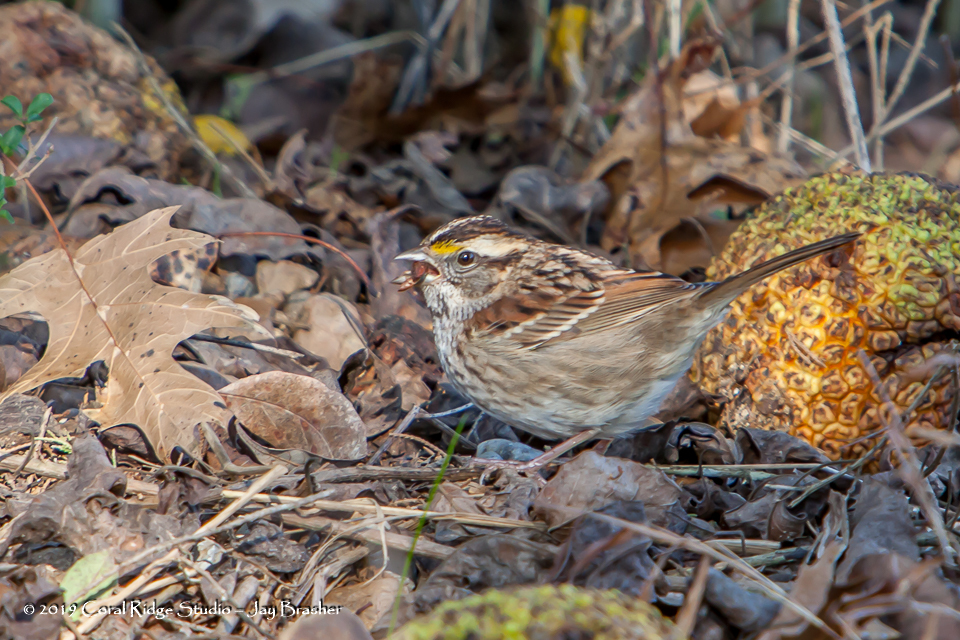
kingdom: Animalia
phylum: Chordata
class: Aves
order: Passeriformes
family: Passerellidae
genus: Zonotrichia
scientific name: Zonotrichia albicollis
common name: White-throated sparrow
